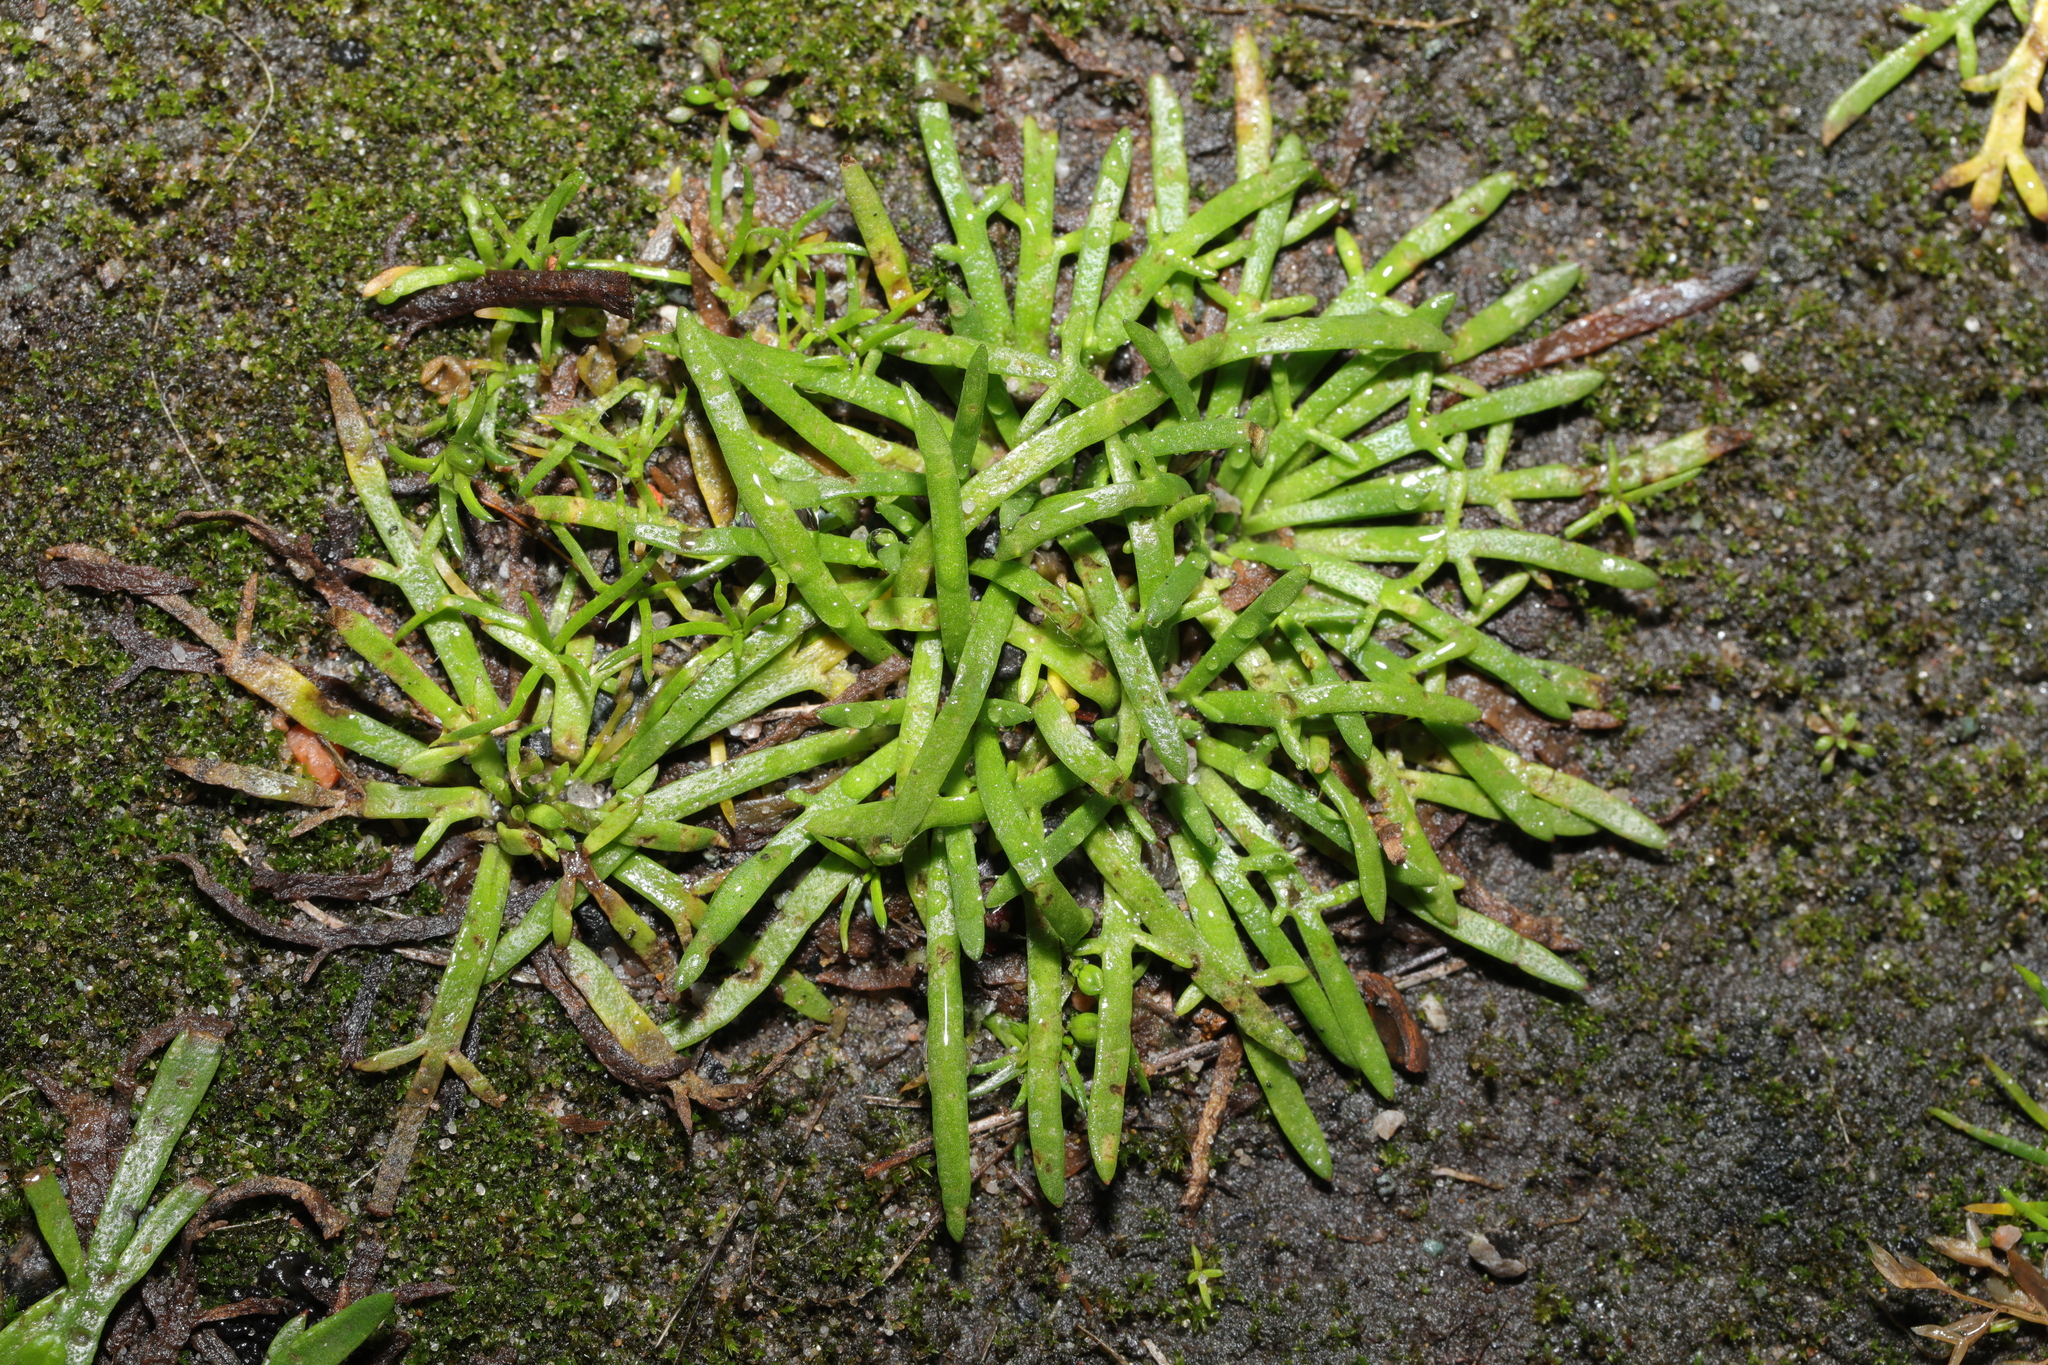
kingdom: Plantae
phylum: Tracheophyta
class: Magnoliopsida
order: Lamiales
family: Plantaginaceae
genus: Plantago
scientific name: Plantago coronopus
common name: Buck's-horn plantain
